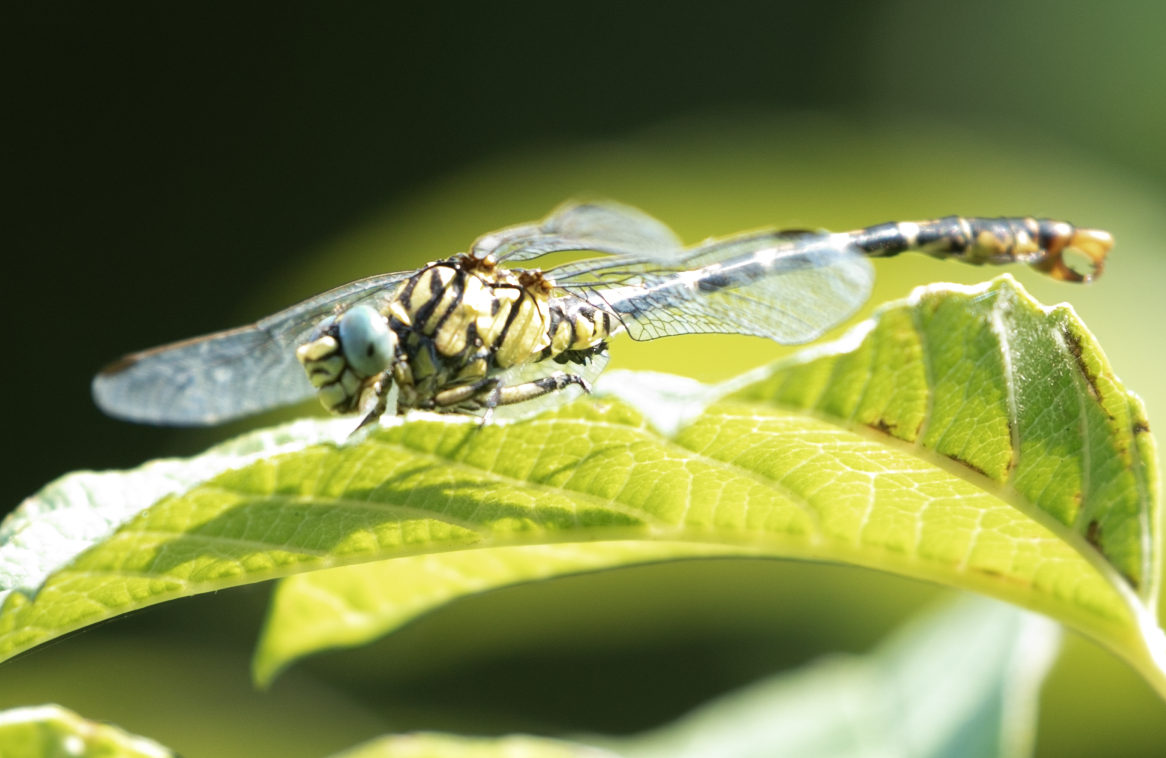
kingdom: Animalia
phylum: Arthropoda
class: Insecta
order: Odonata
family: Gomphidae
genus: Onychogomphus
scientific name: Onychogomphus forcipatus
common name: Small pincertail
